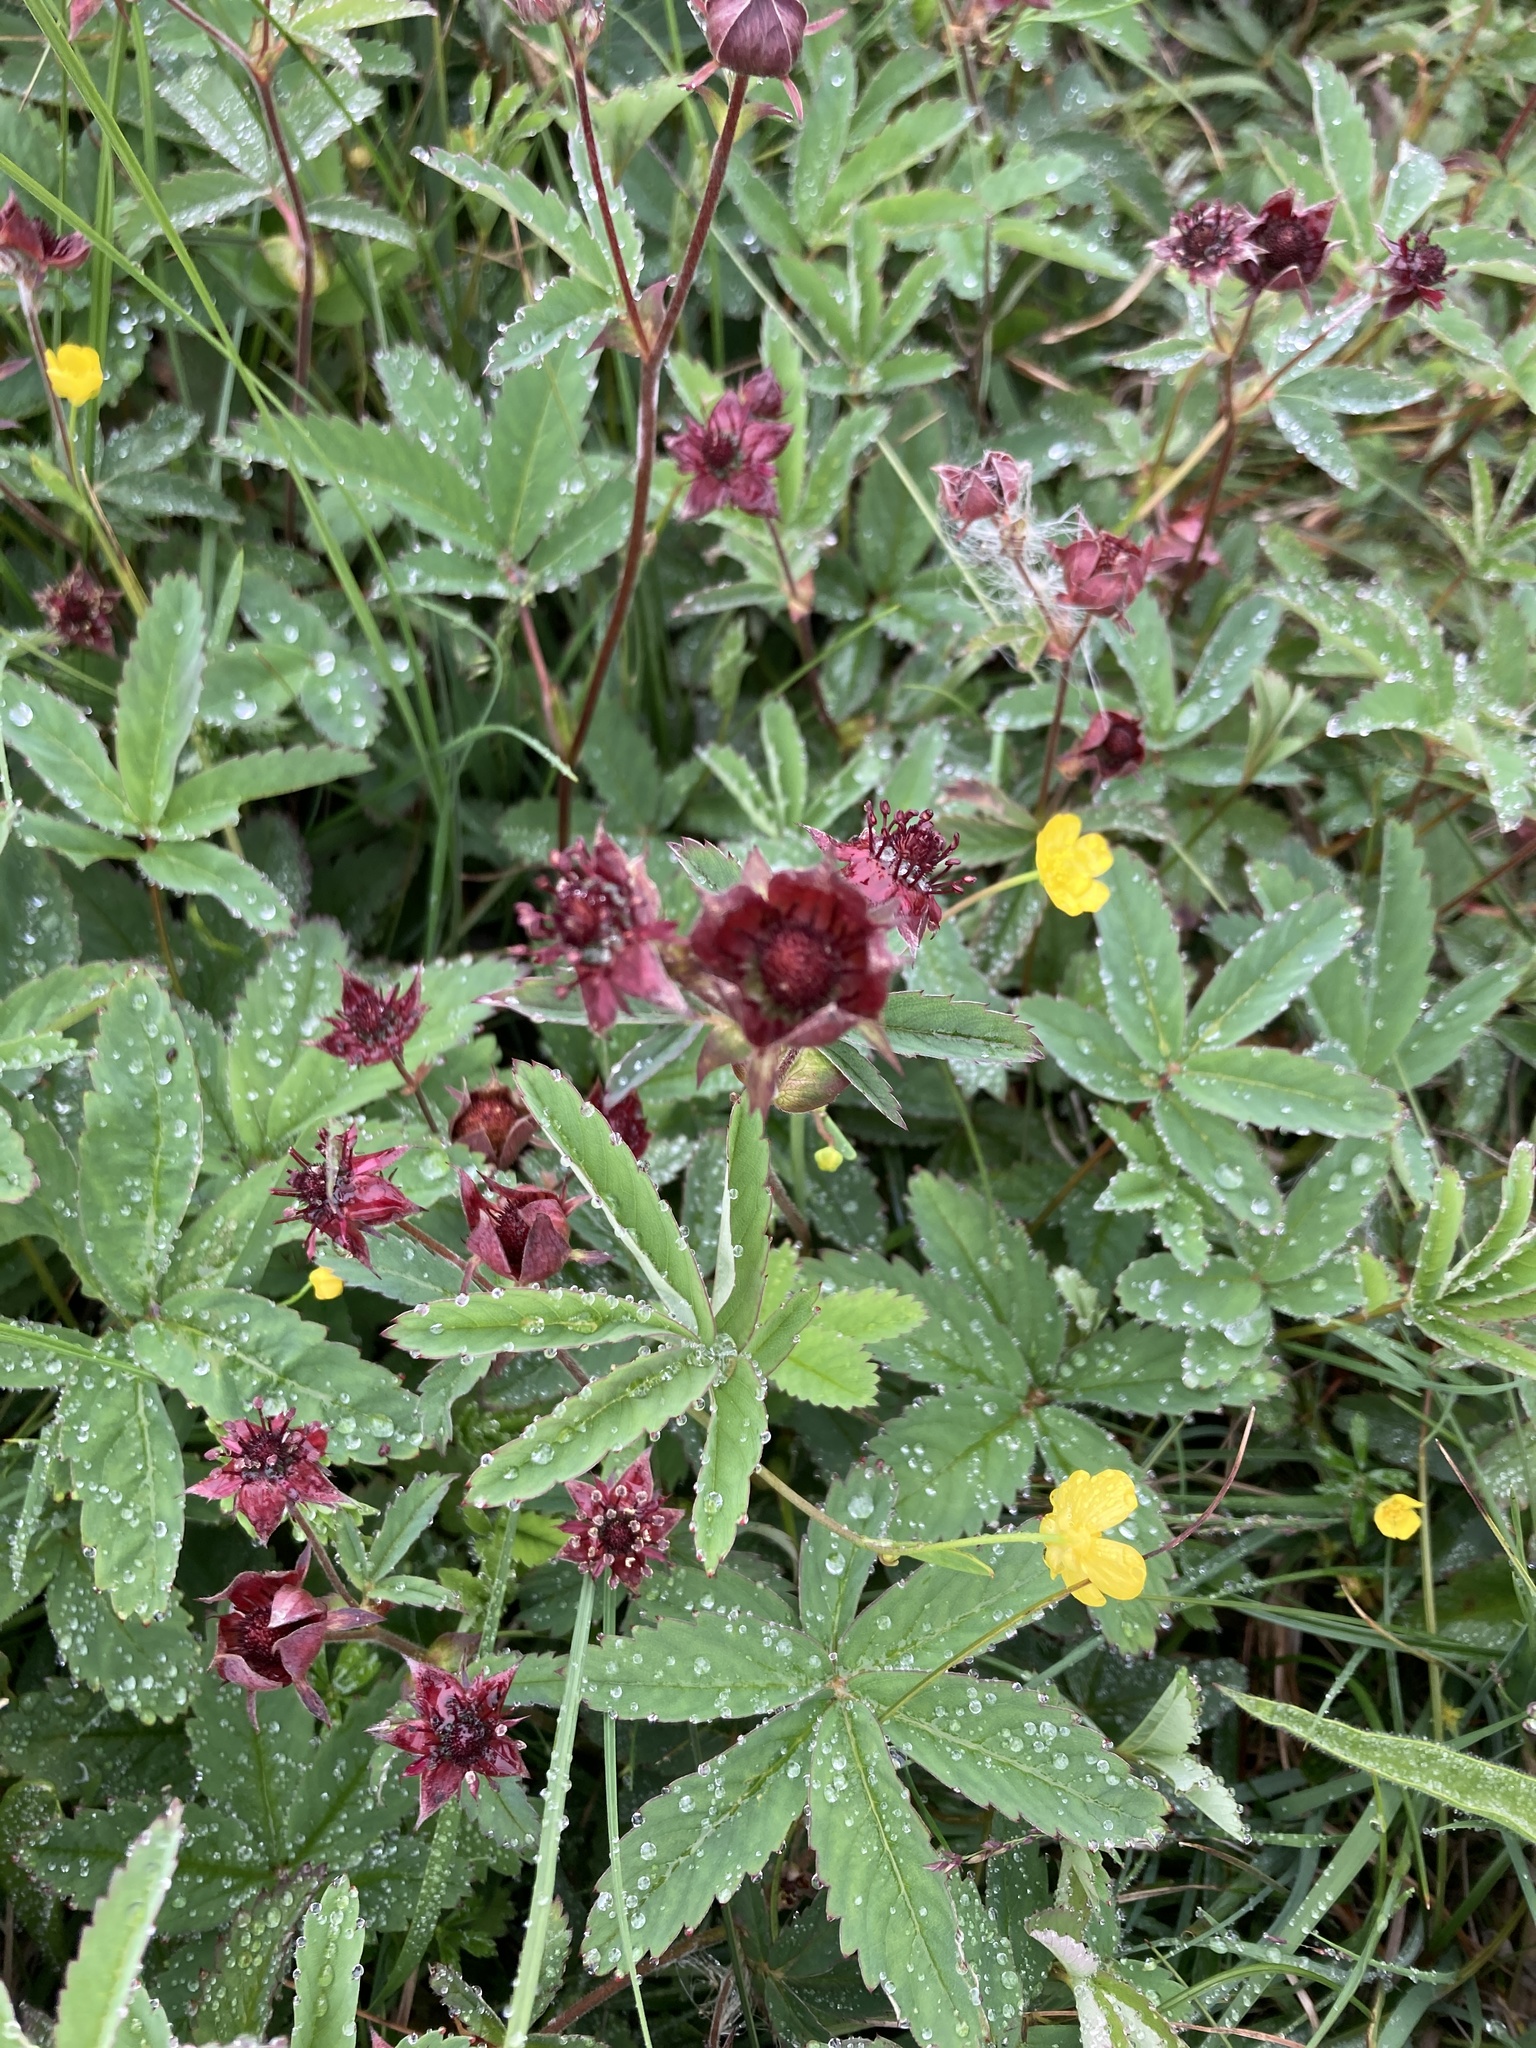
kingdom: Plantae
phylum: Tracheophyta
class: Magnoliopsida
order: Rosales
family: Rosaceae
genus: Comarum
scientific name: Comarum palustre
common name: Marsh cinquefoil
